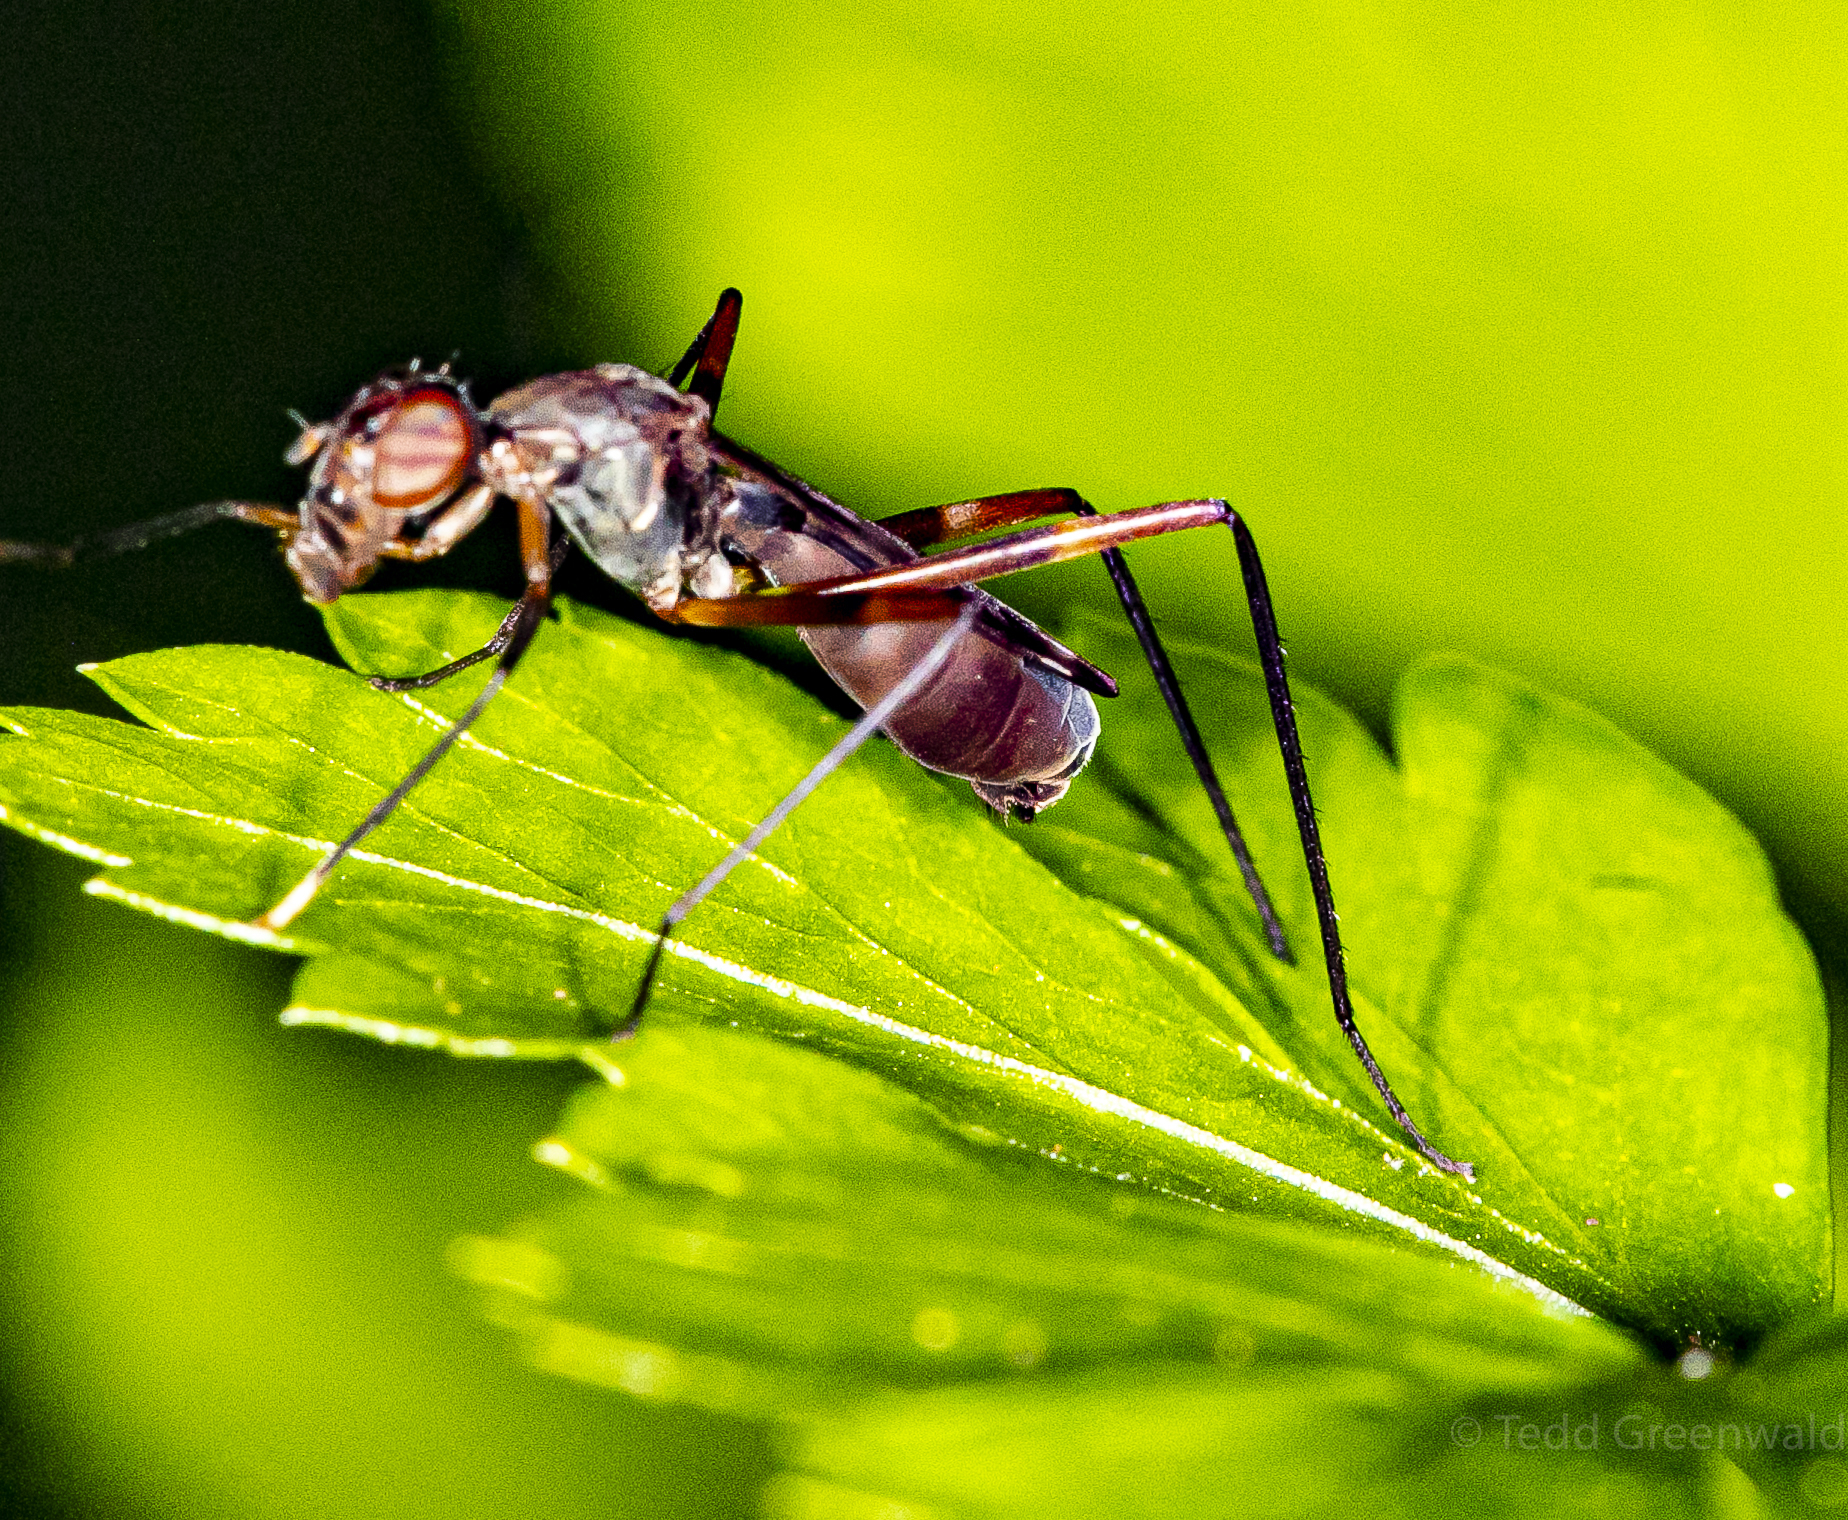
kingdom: Animalia
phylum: Arthropoda
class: Insecta
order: Diptera
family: Micropezidae
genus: Taeniaptera
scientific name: Taeniaptera trivittata
